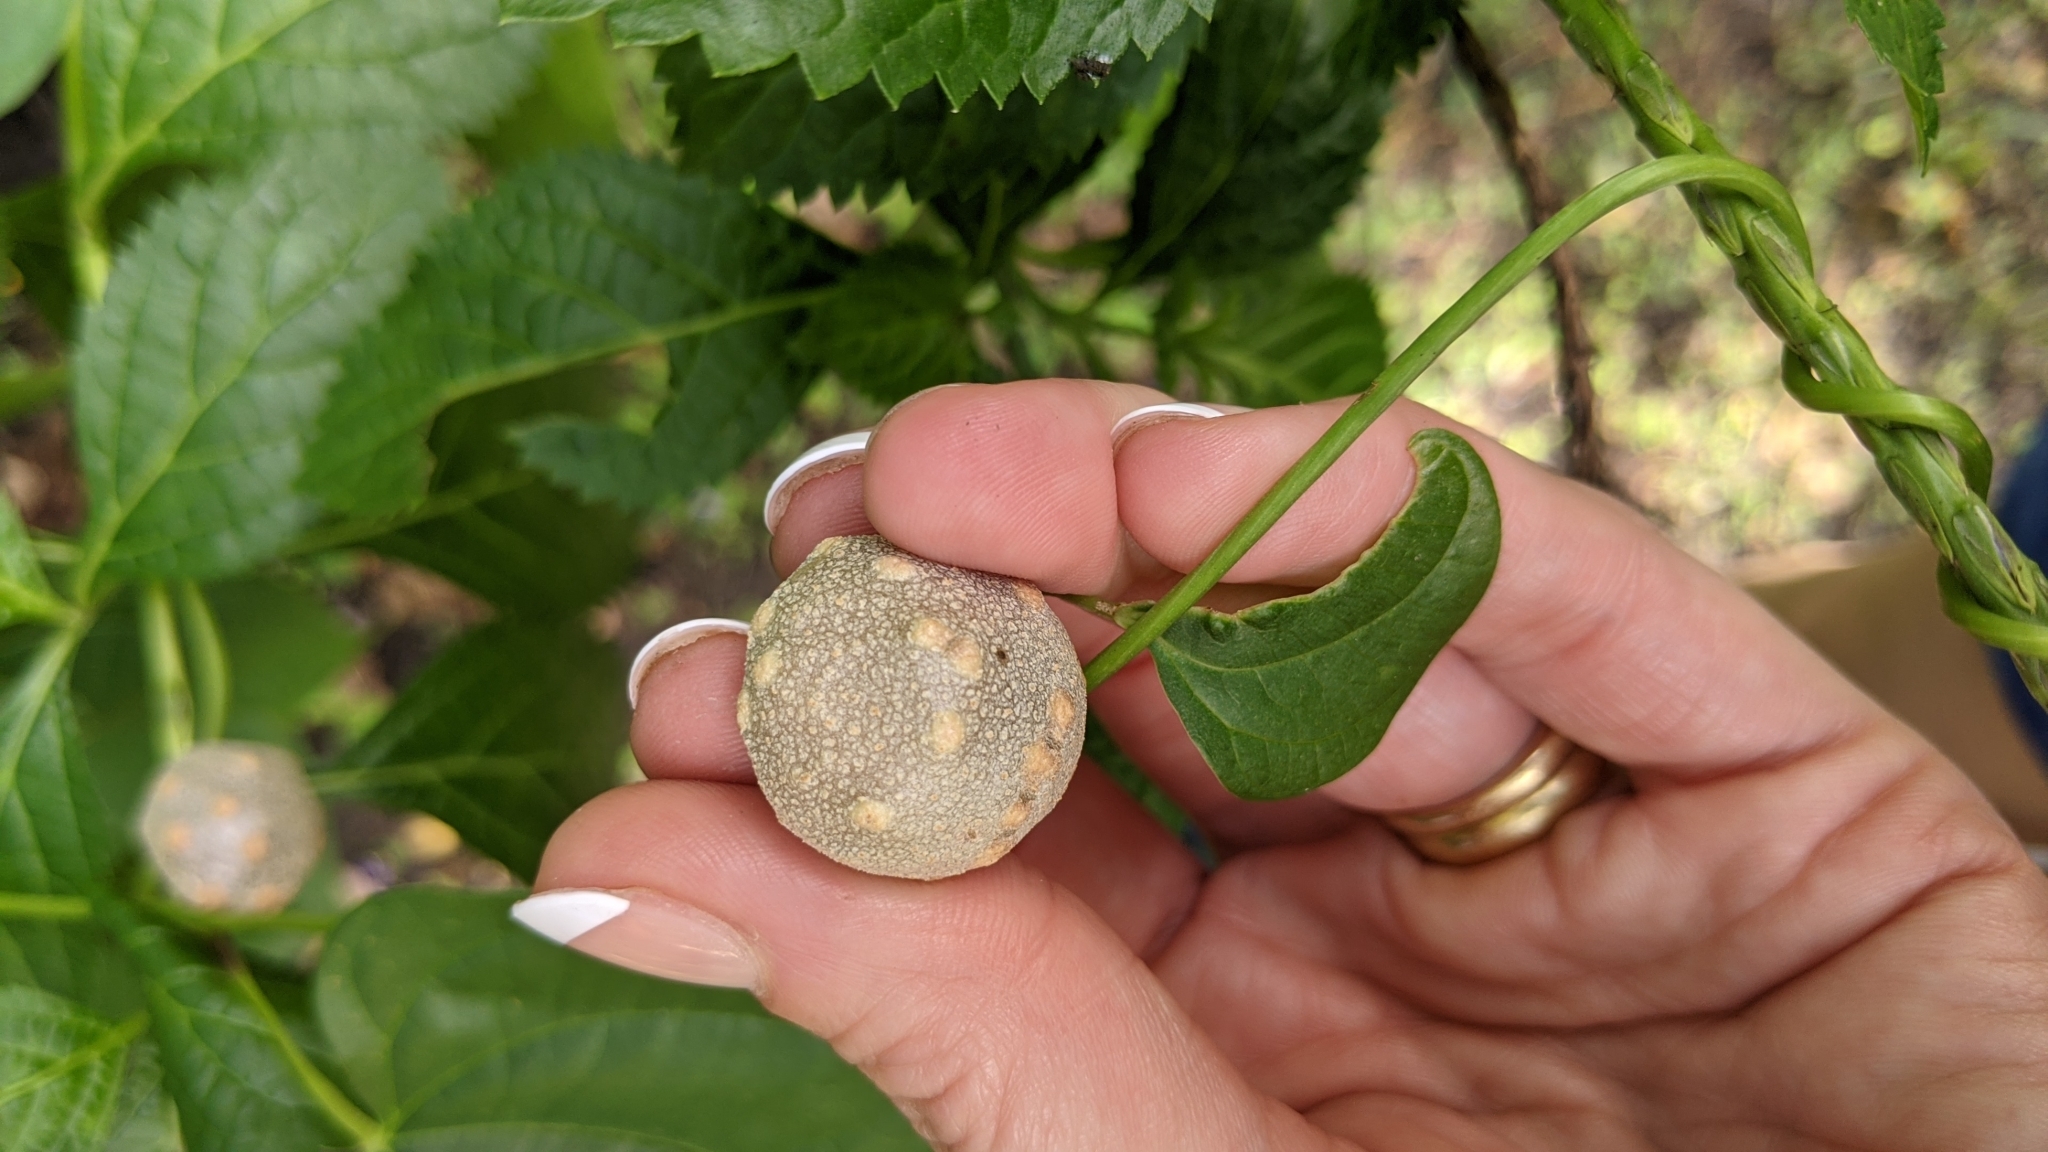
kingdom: Plantae
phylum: Tracheophyta
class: Liliopsida
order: Dioscoreales
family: Dioscoreaceae
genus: Dioscorea
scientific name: Dioscorea bulbifera
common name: Air yam
